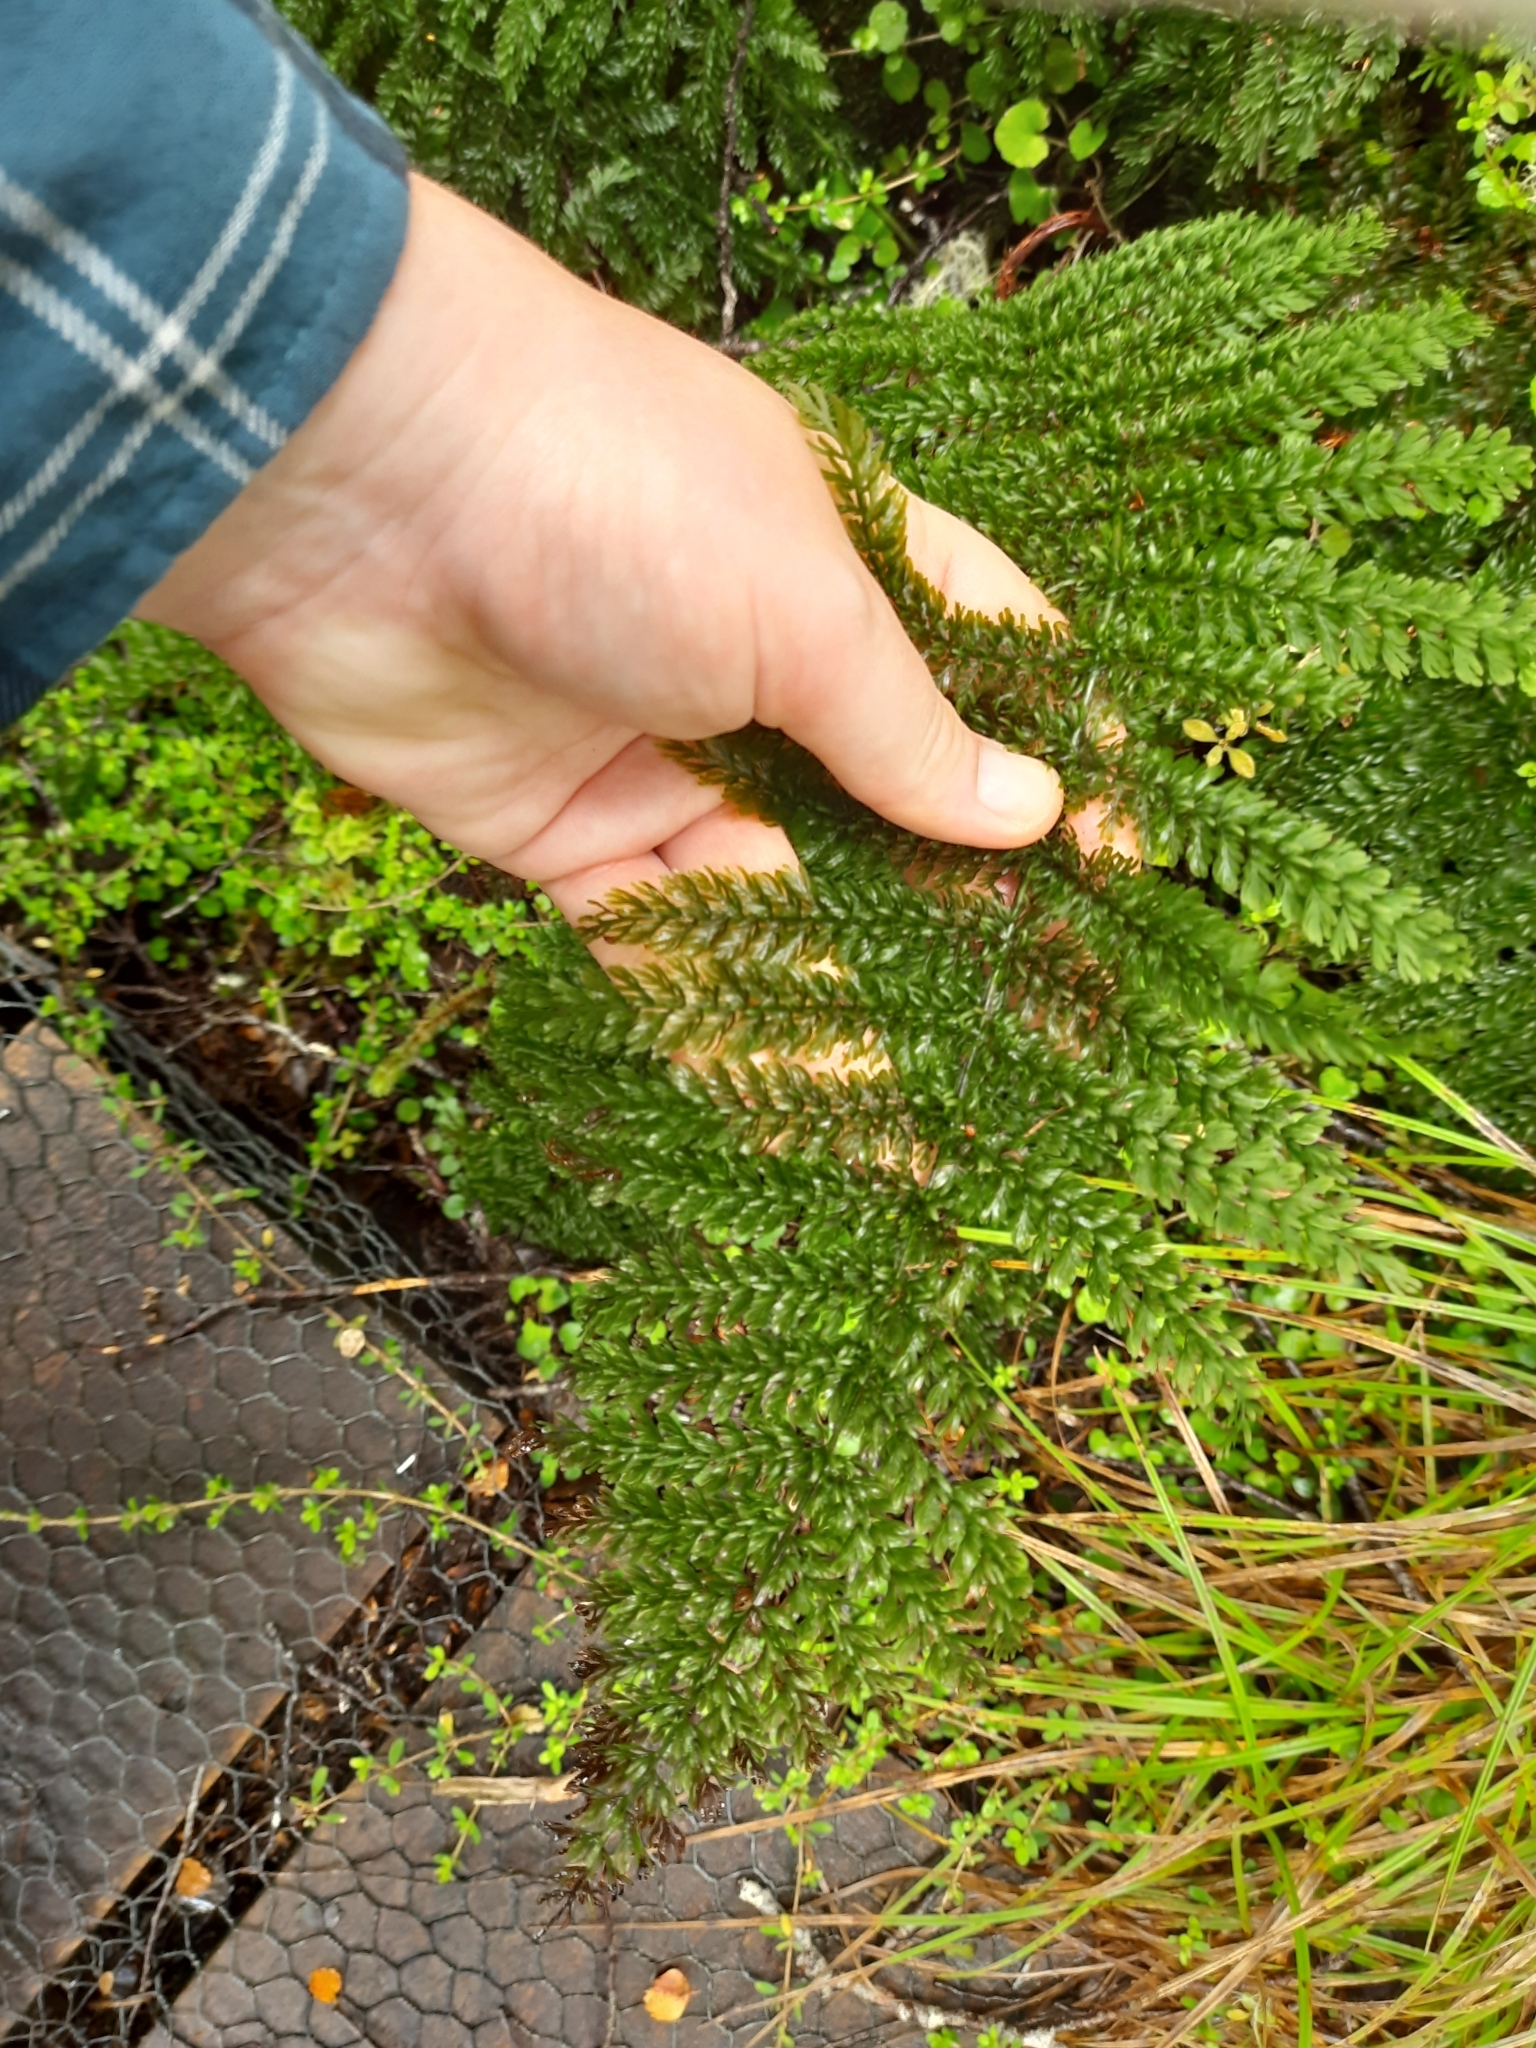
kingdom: Plantae
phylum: Tracheophyta
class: Polypodiopsida
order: Osmundales
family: Osmundaceae
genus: Leptopteris
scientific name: Leptopteris superba
